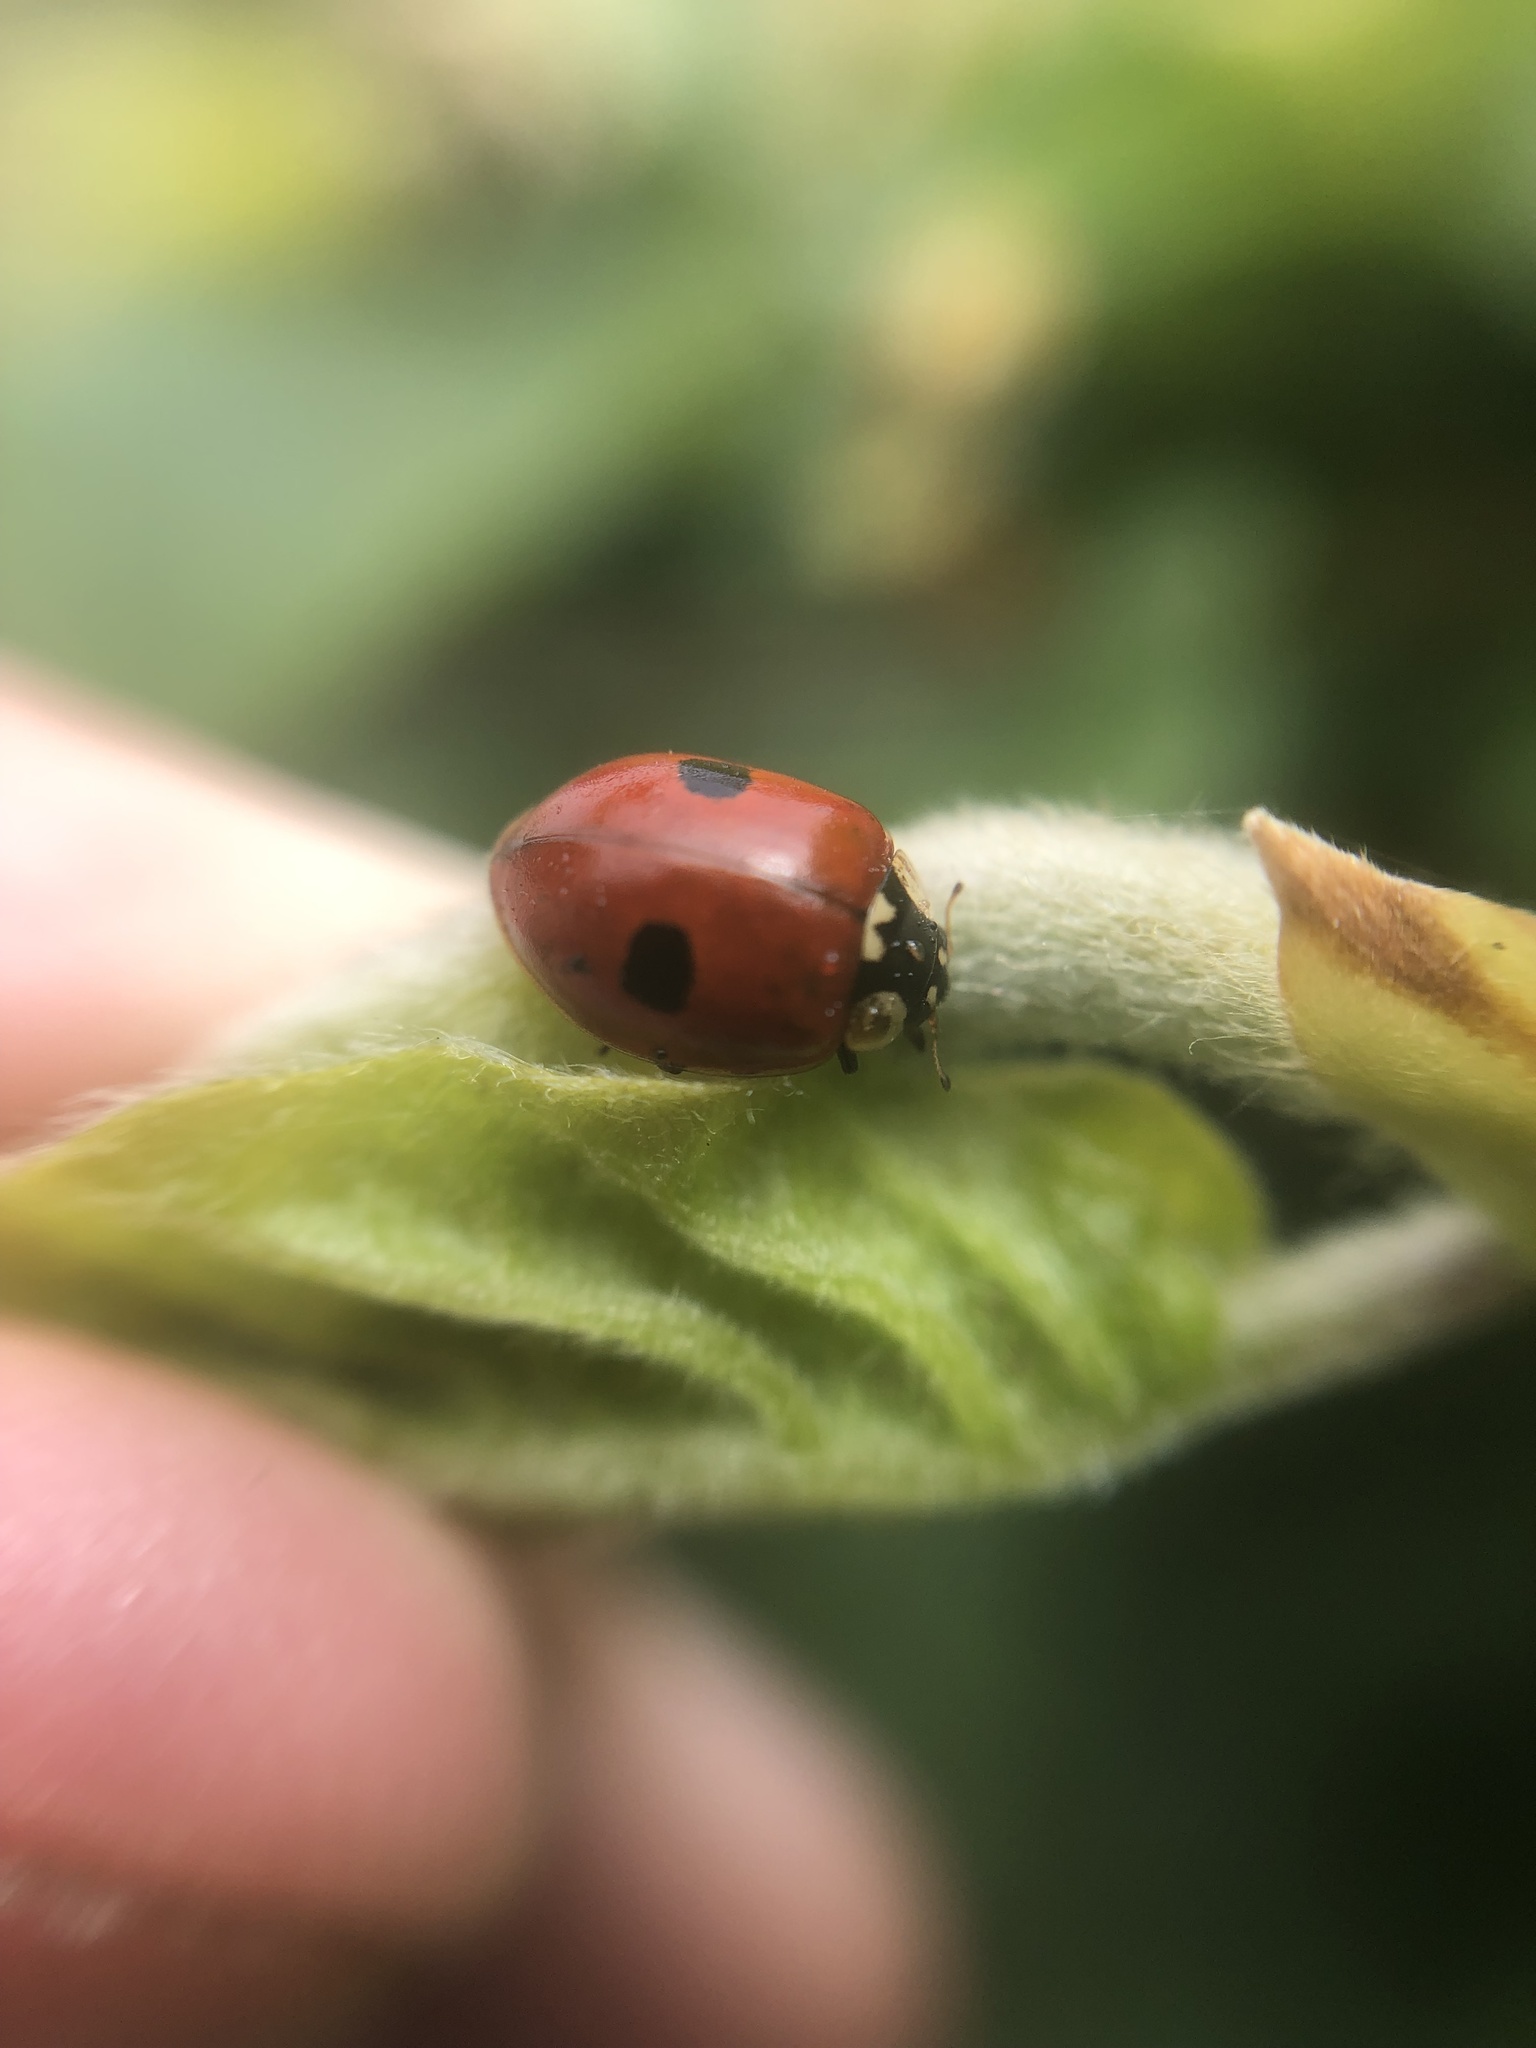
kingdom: Animalia
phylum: Arthropoda
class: Insecta
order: Coleoptera
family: Coccinellidae
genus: Adalia
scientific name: Adalia bipunctata
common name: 2-spot ladybird
